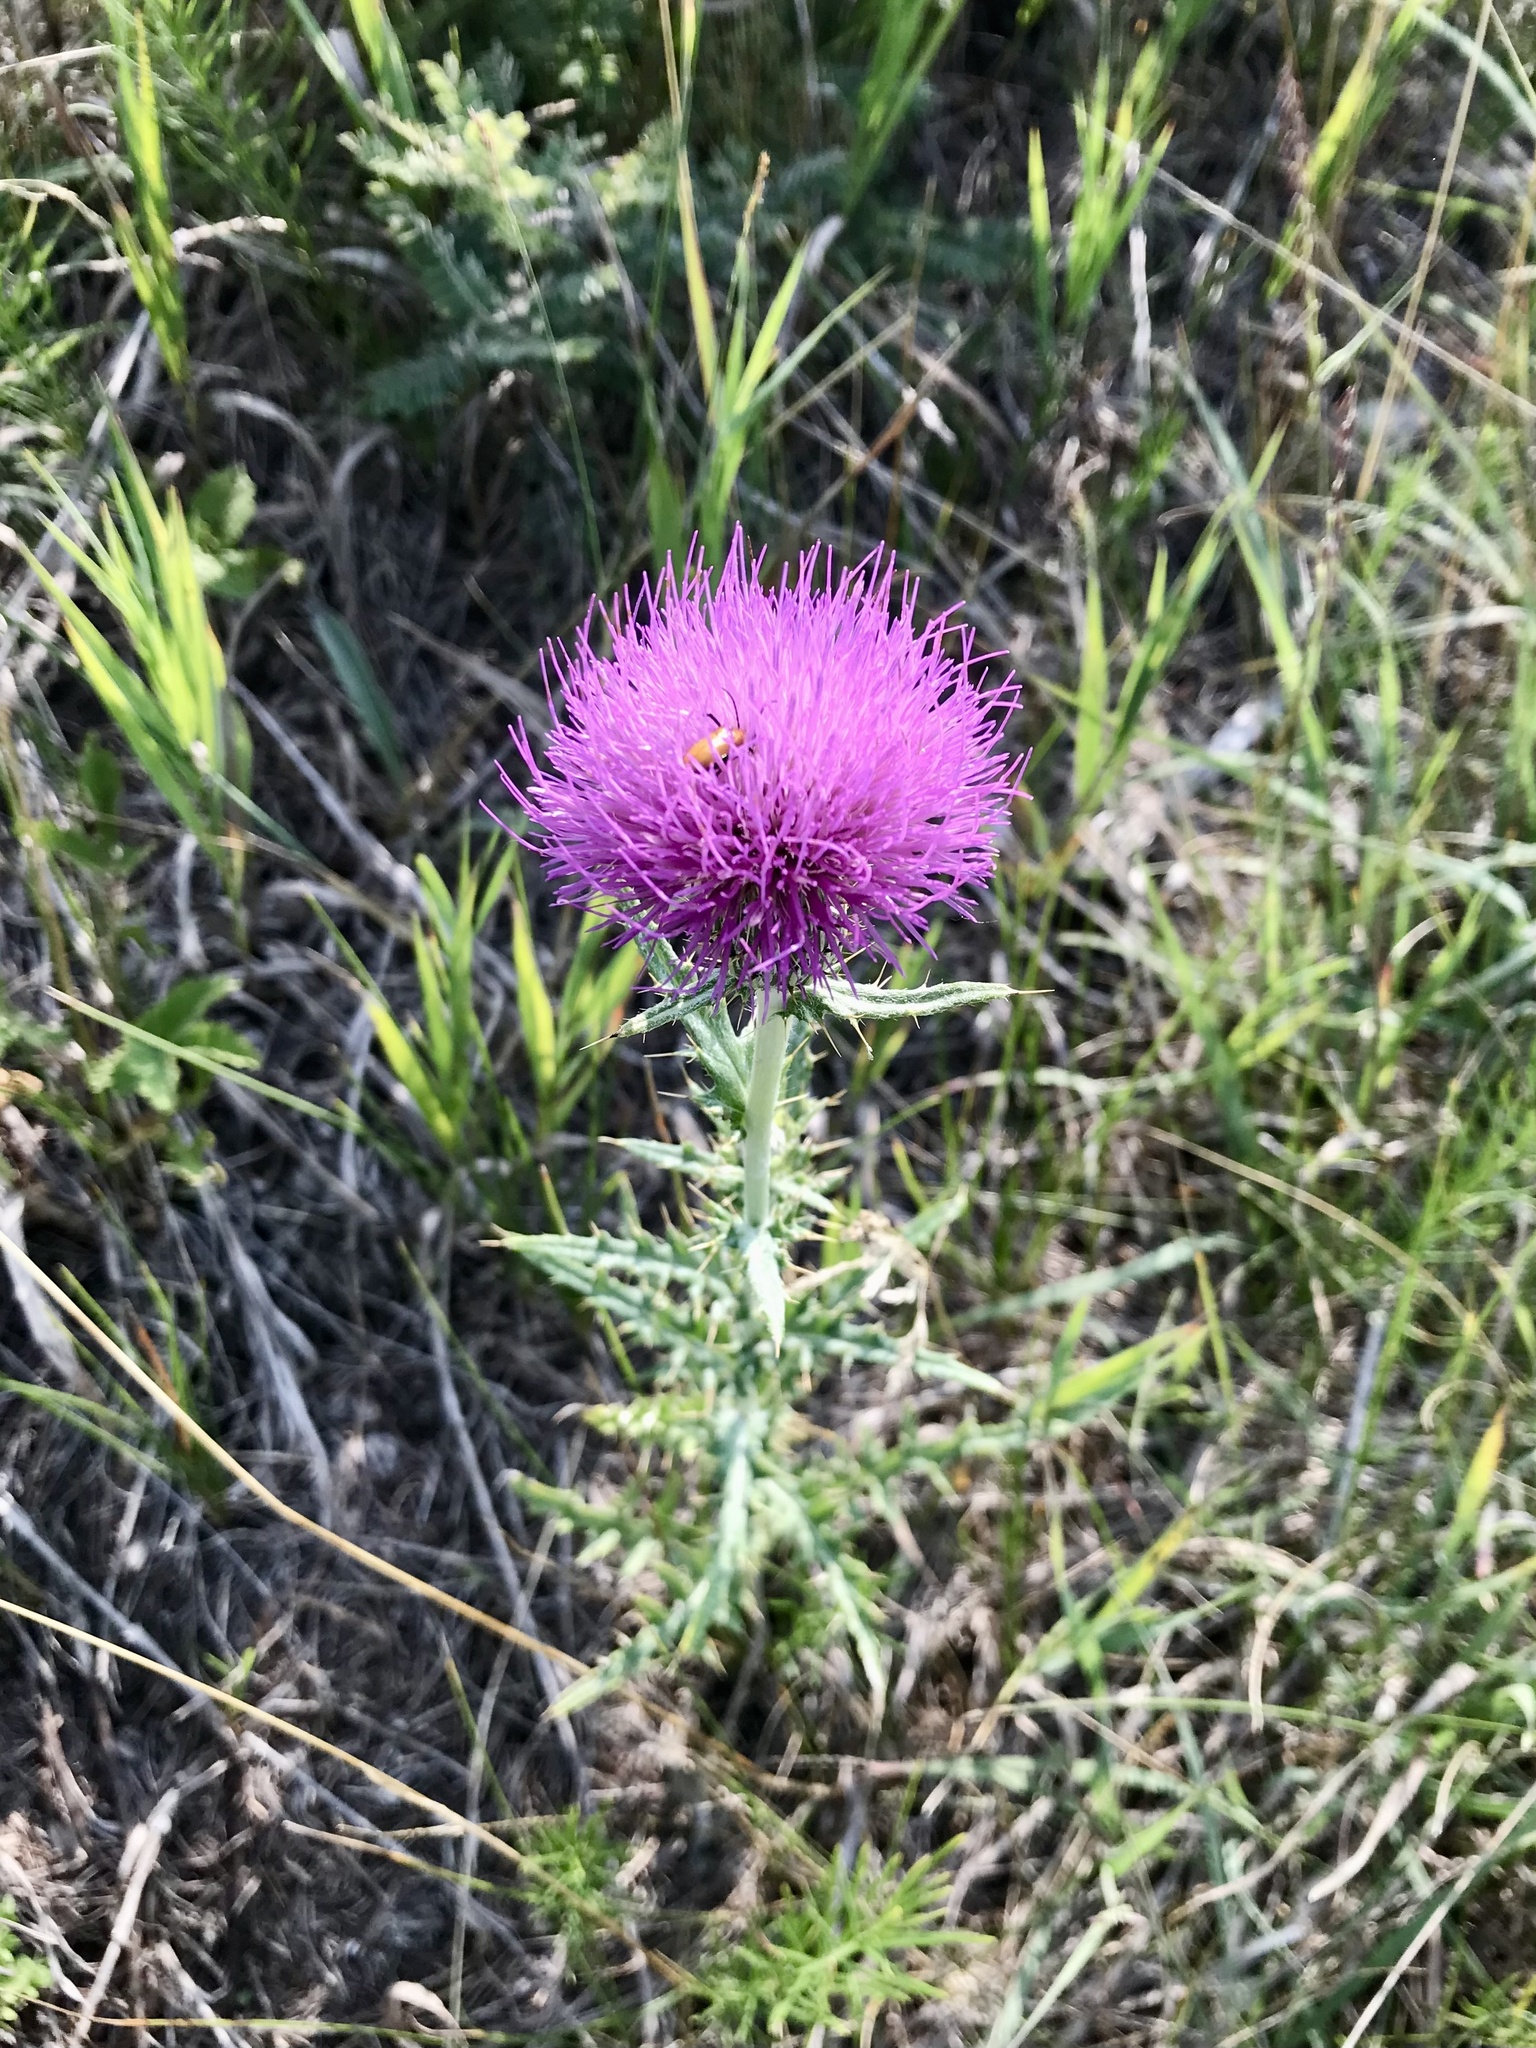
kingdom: Plantae
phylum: Tracheophyta
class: Magnoliopsida
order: Asterales
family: Asteraceae
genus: Cirsium
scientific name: Cirsium flodmanii
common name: Flodman's thistle
